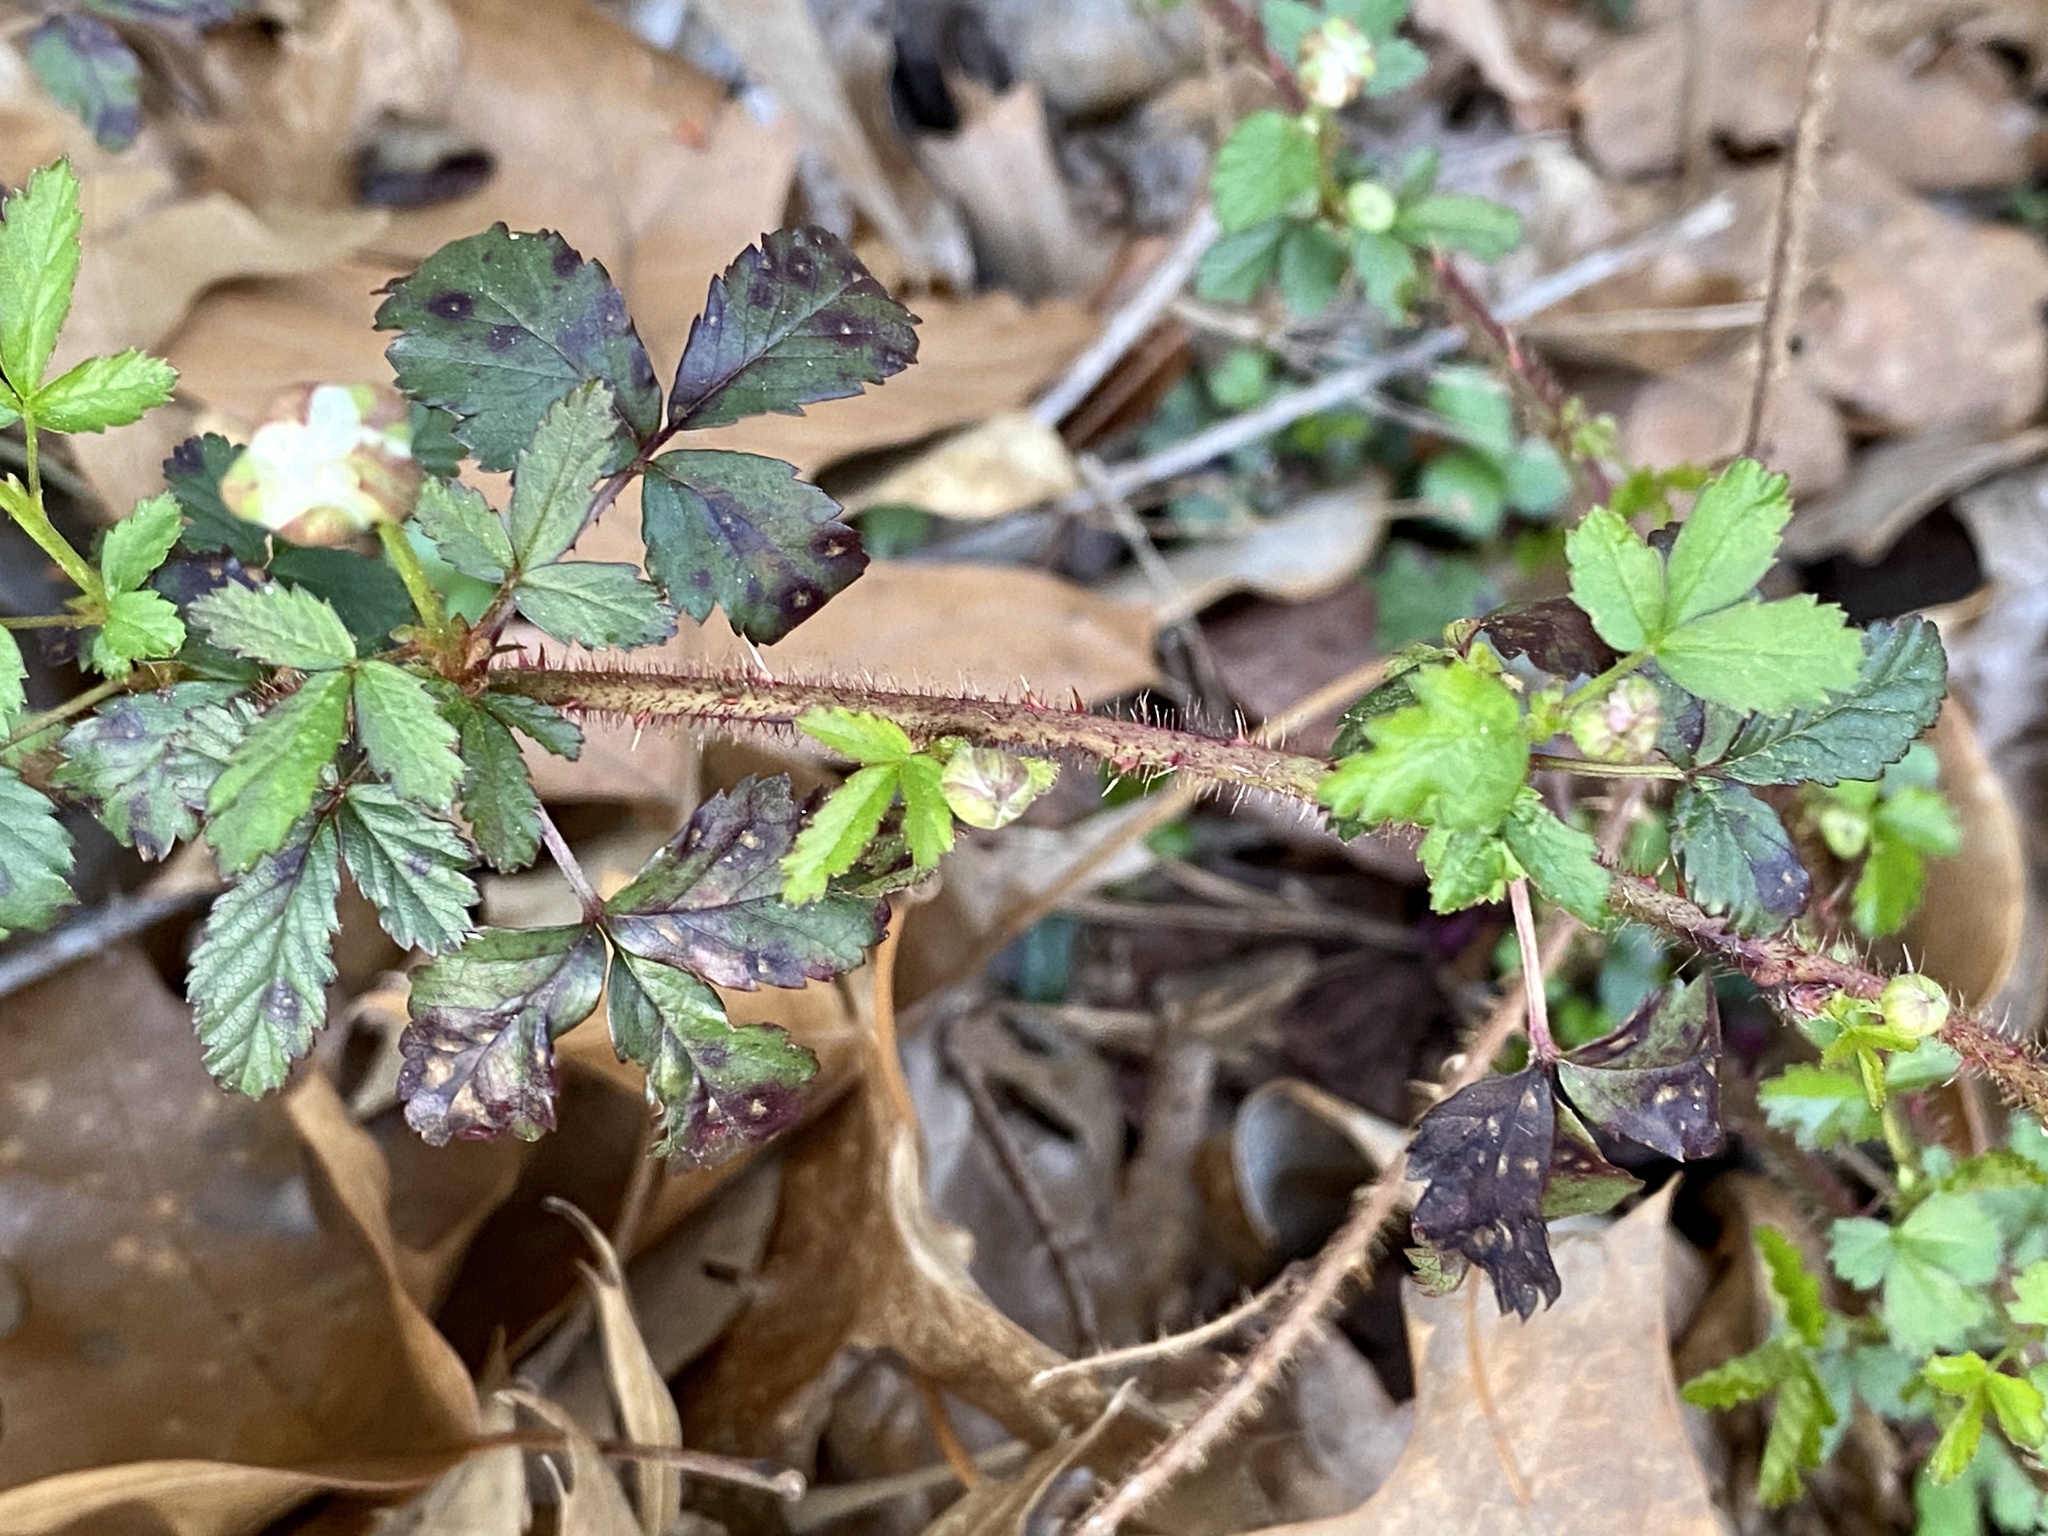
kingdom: Plantae
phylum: Tracheophyta
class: Magnoliopsida
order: Rosales
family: Rosaceae
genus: Rubus
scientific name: Rubus trivialis
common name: Southern dewberry
